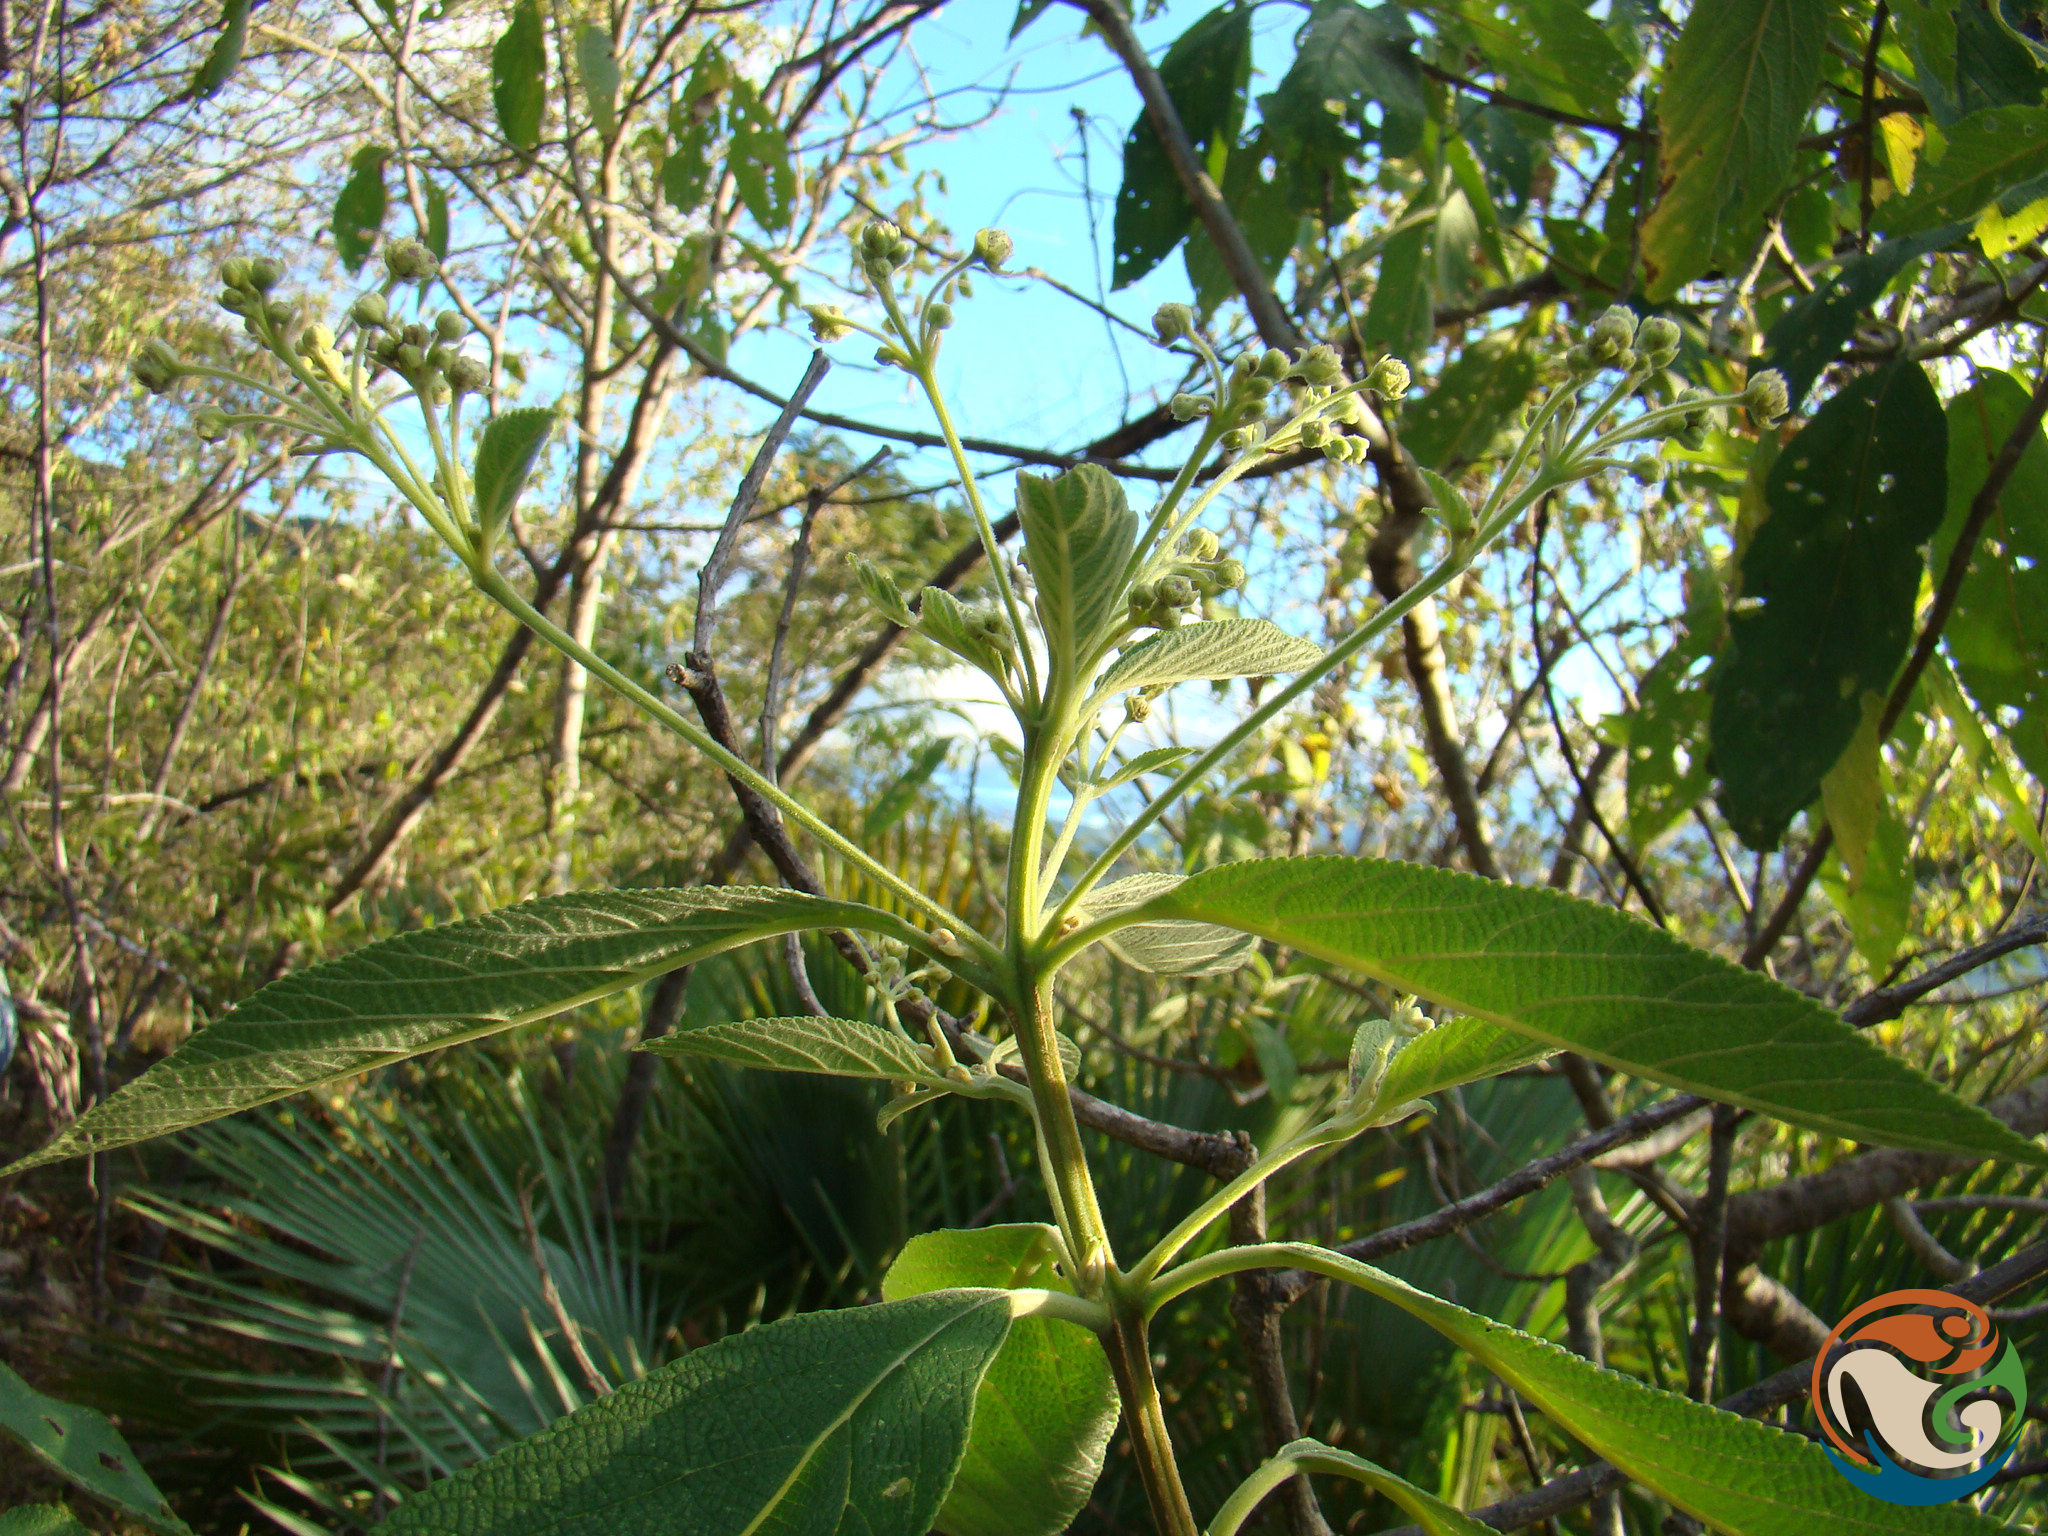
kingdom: Plantae
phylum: Tracheophyta
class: Magnoliopsida
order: Lamiales
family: Verbenaceae
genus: Lippia
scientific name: Lippia myriocephala
